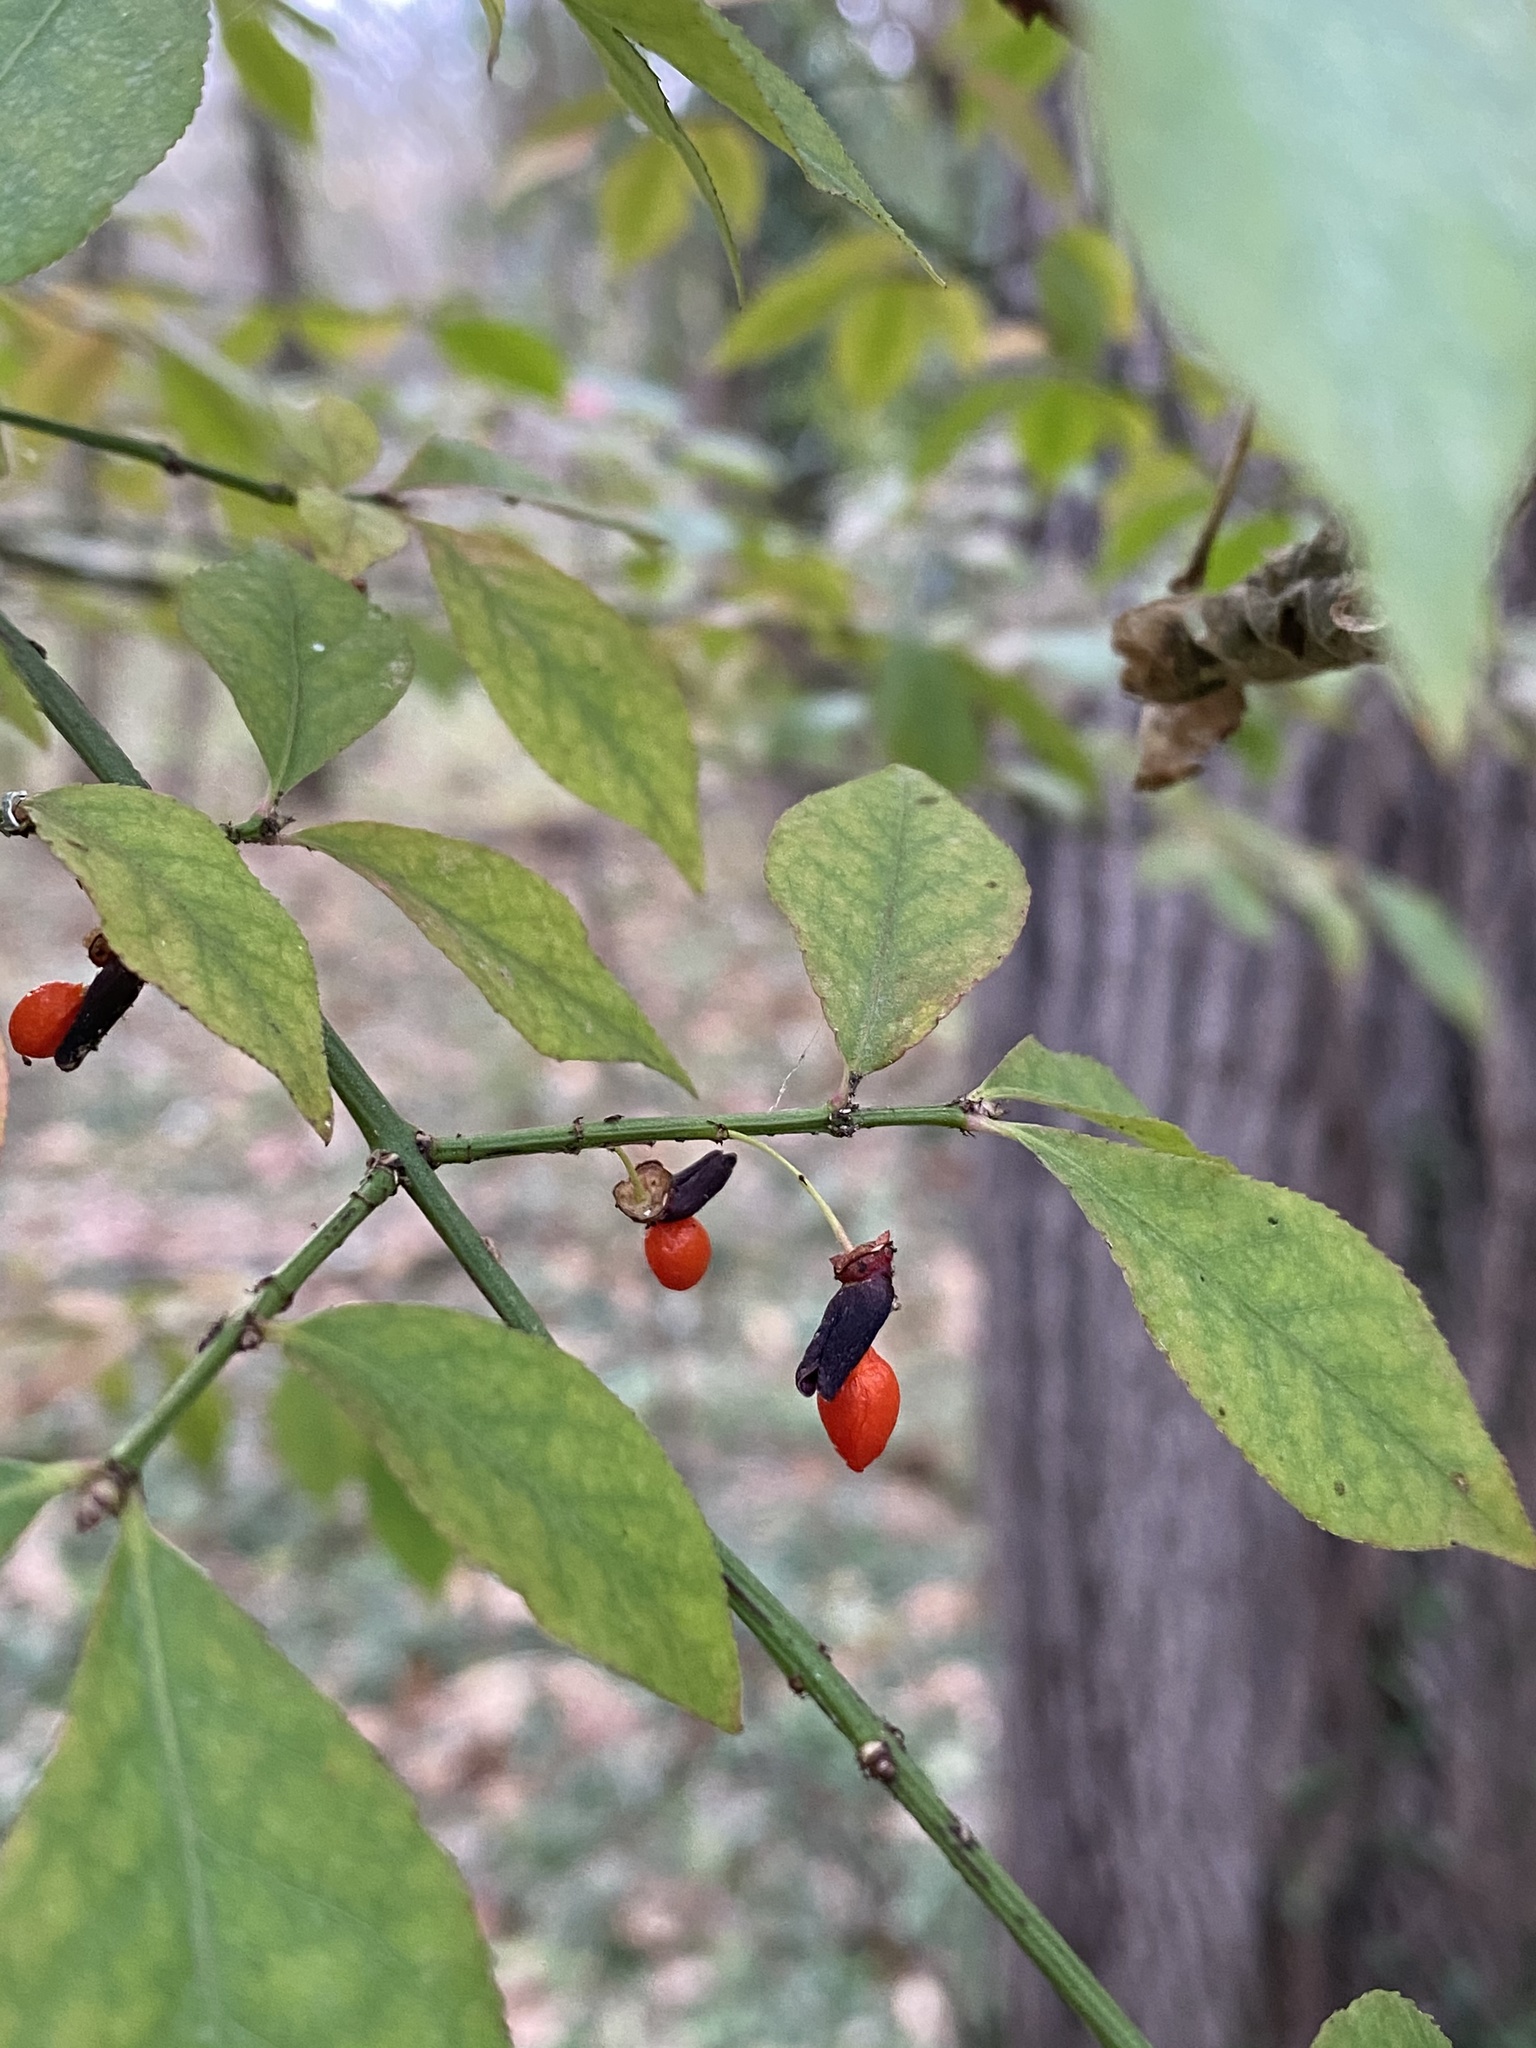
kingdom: Plantae
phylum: Tracheophyta
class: Magnoliopsida
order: Celastrales
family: Celastraceae
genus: Euonymus
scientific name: Euonymus alatus
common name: Winged euonymus
